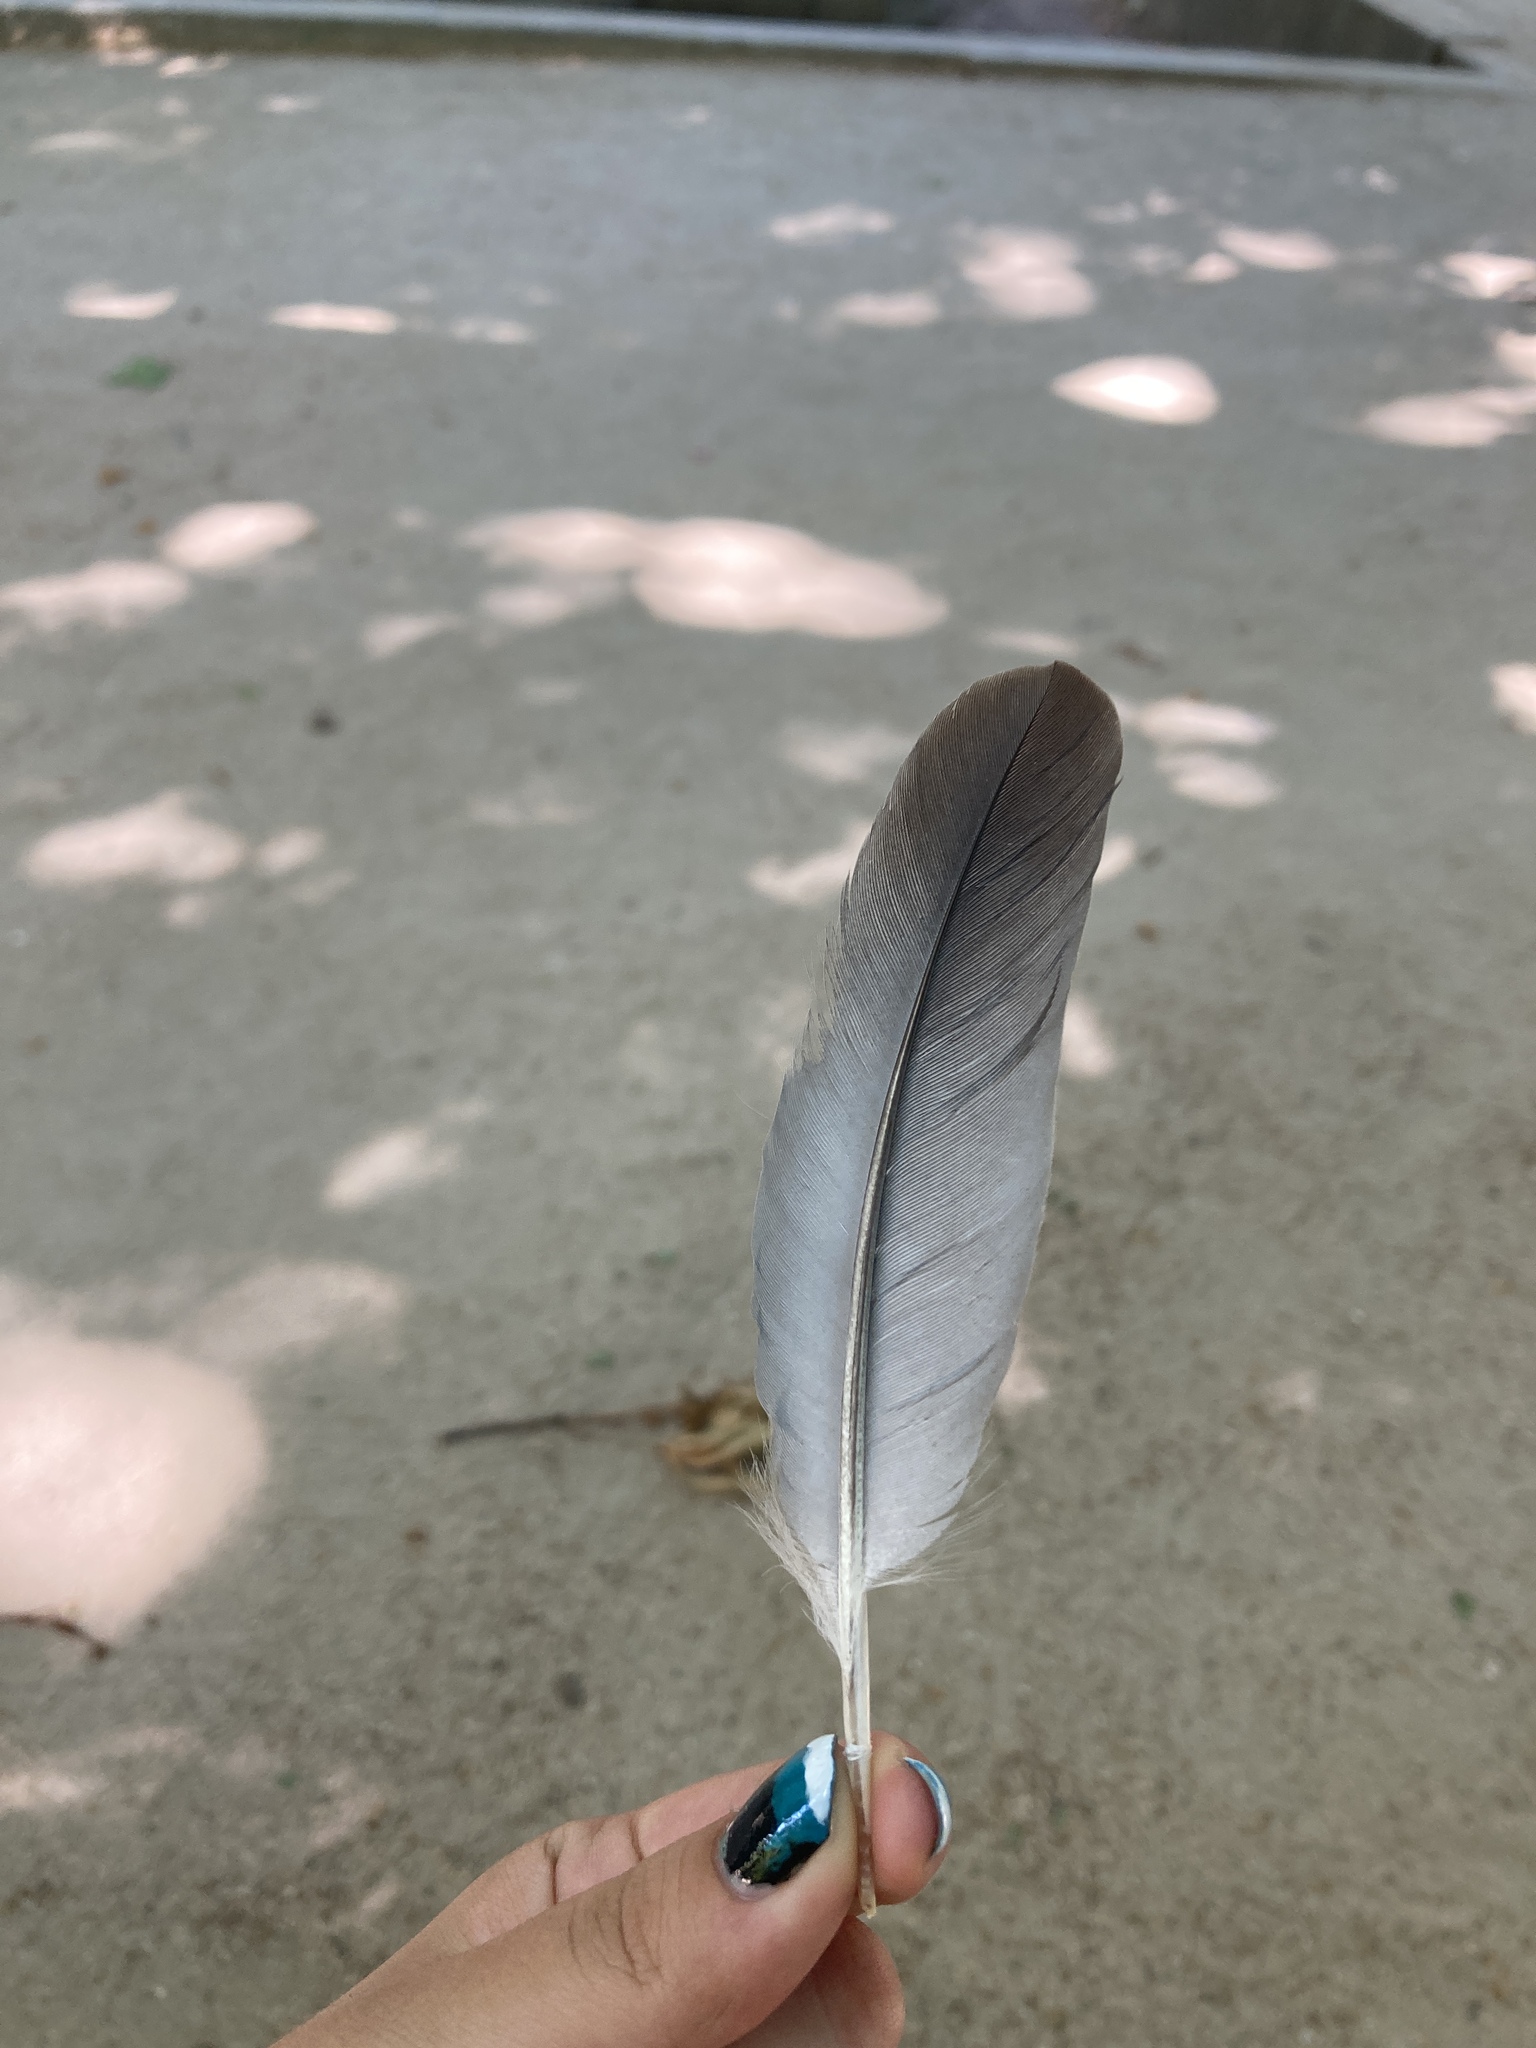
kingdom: Animalia
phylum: Chordata
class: Aves
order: Columbiformes
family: Columbidae
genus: Columba
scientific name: Columba palumbus
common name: Common wood pigeon
